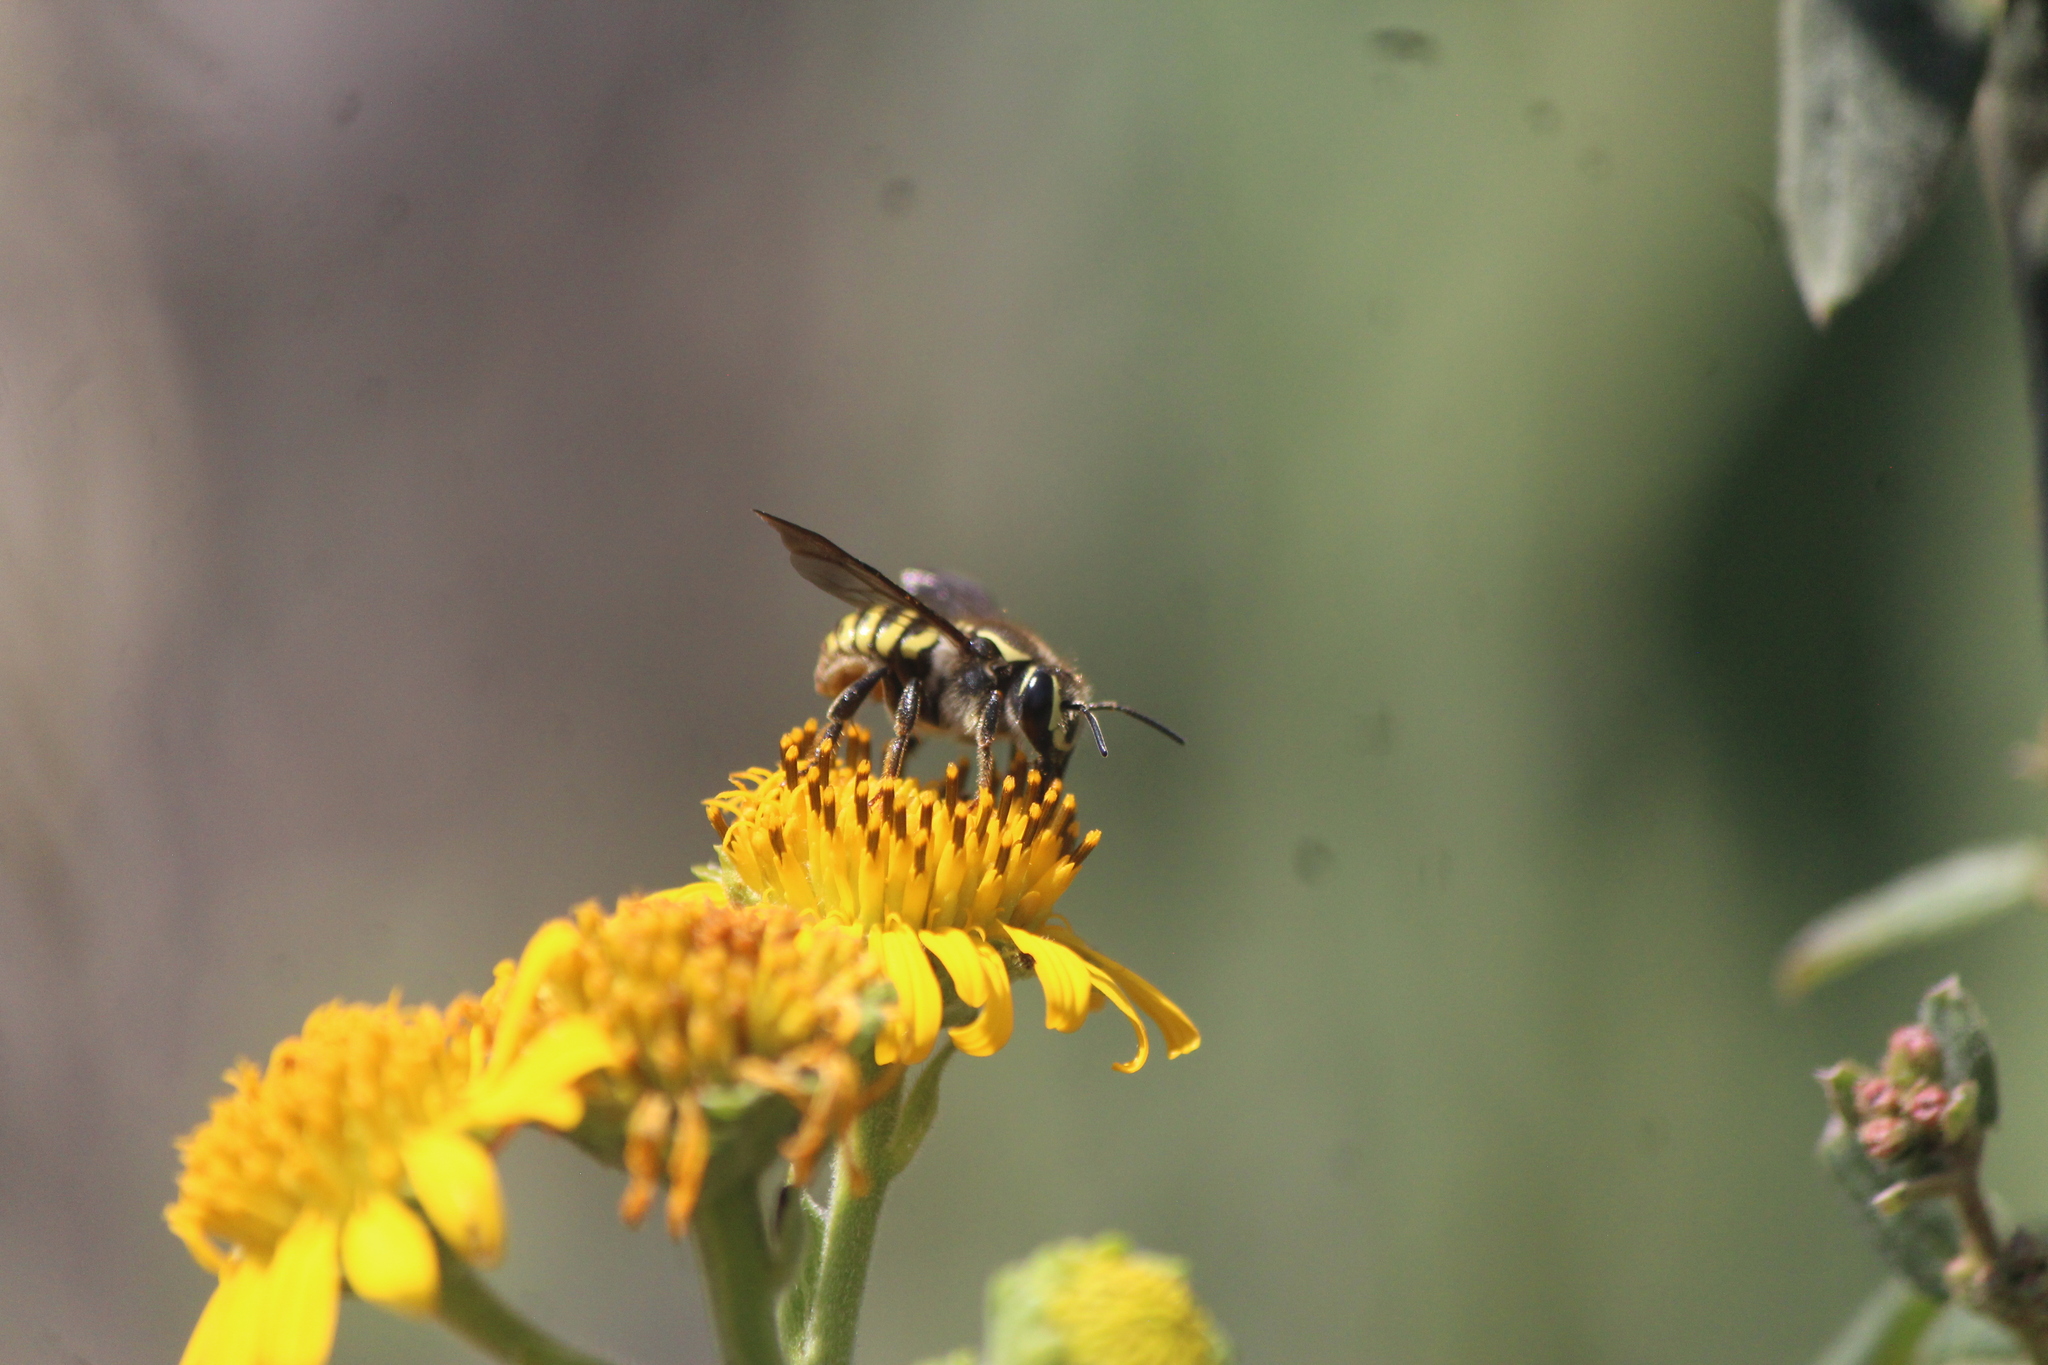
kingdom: Animalia
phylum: Arthropoda
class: Insecta
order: Hymenoptera
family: Megachilidae
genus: Paranthidium
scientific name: Paranthidium gabbii
